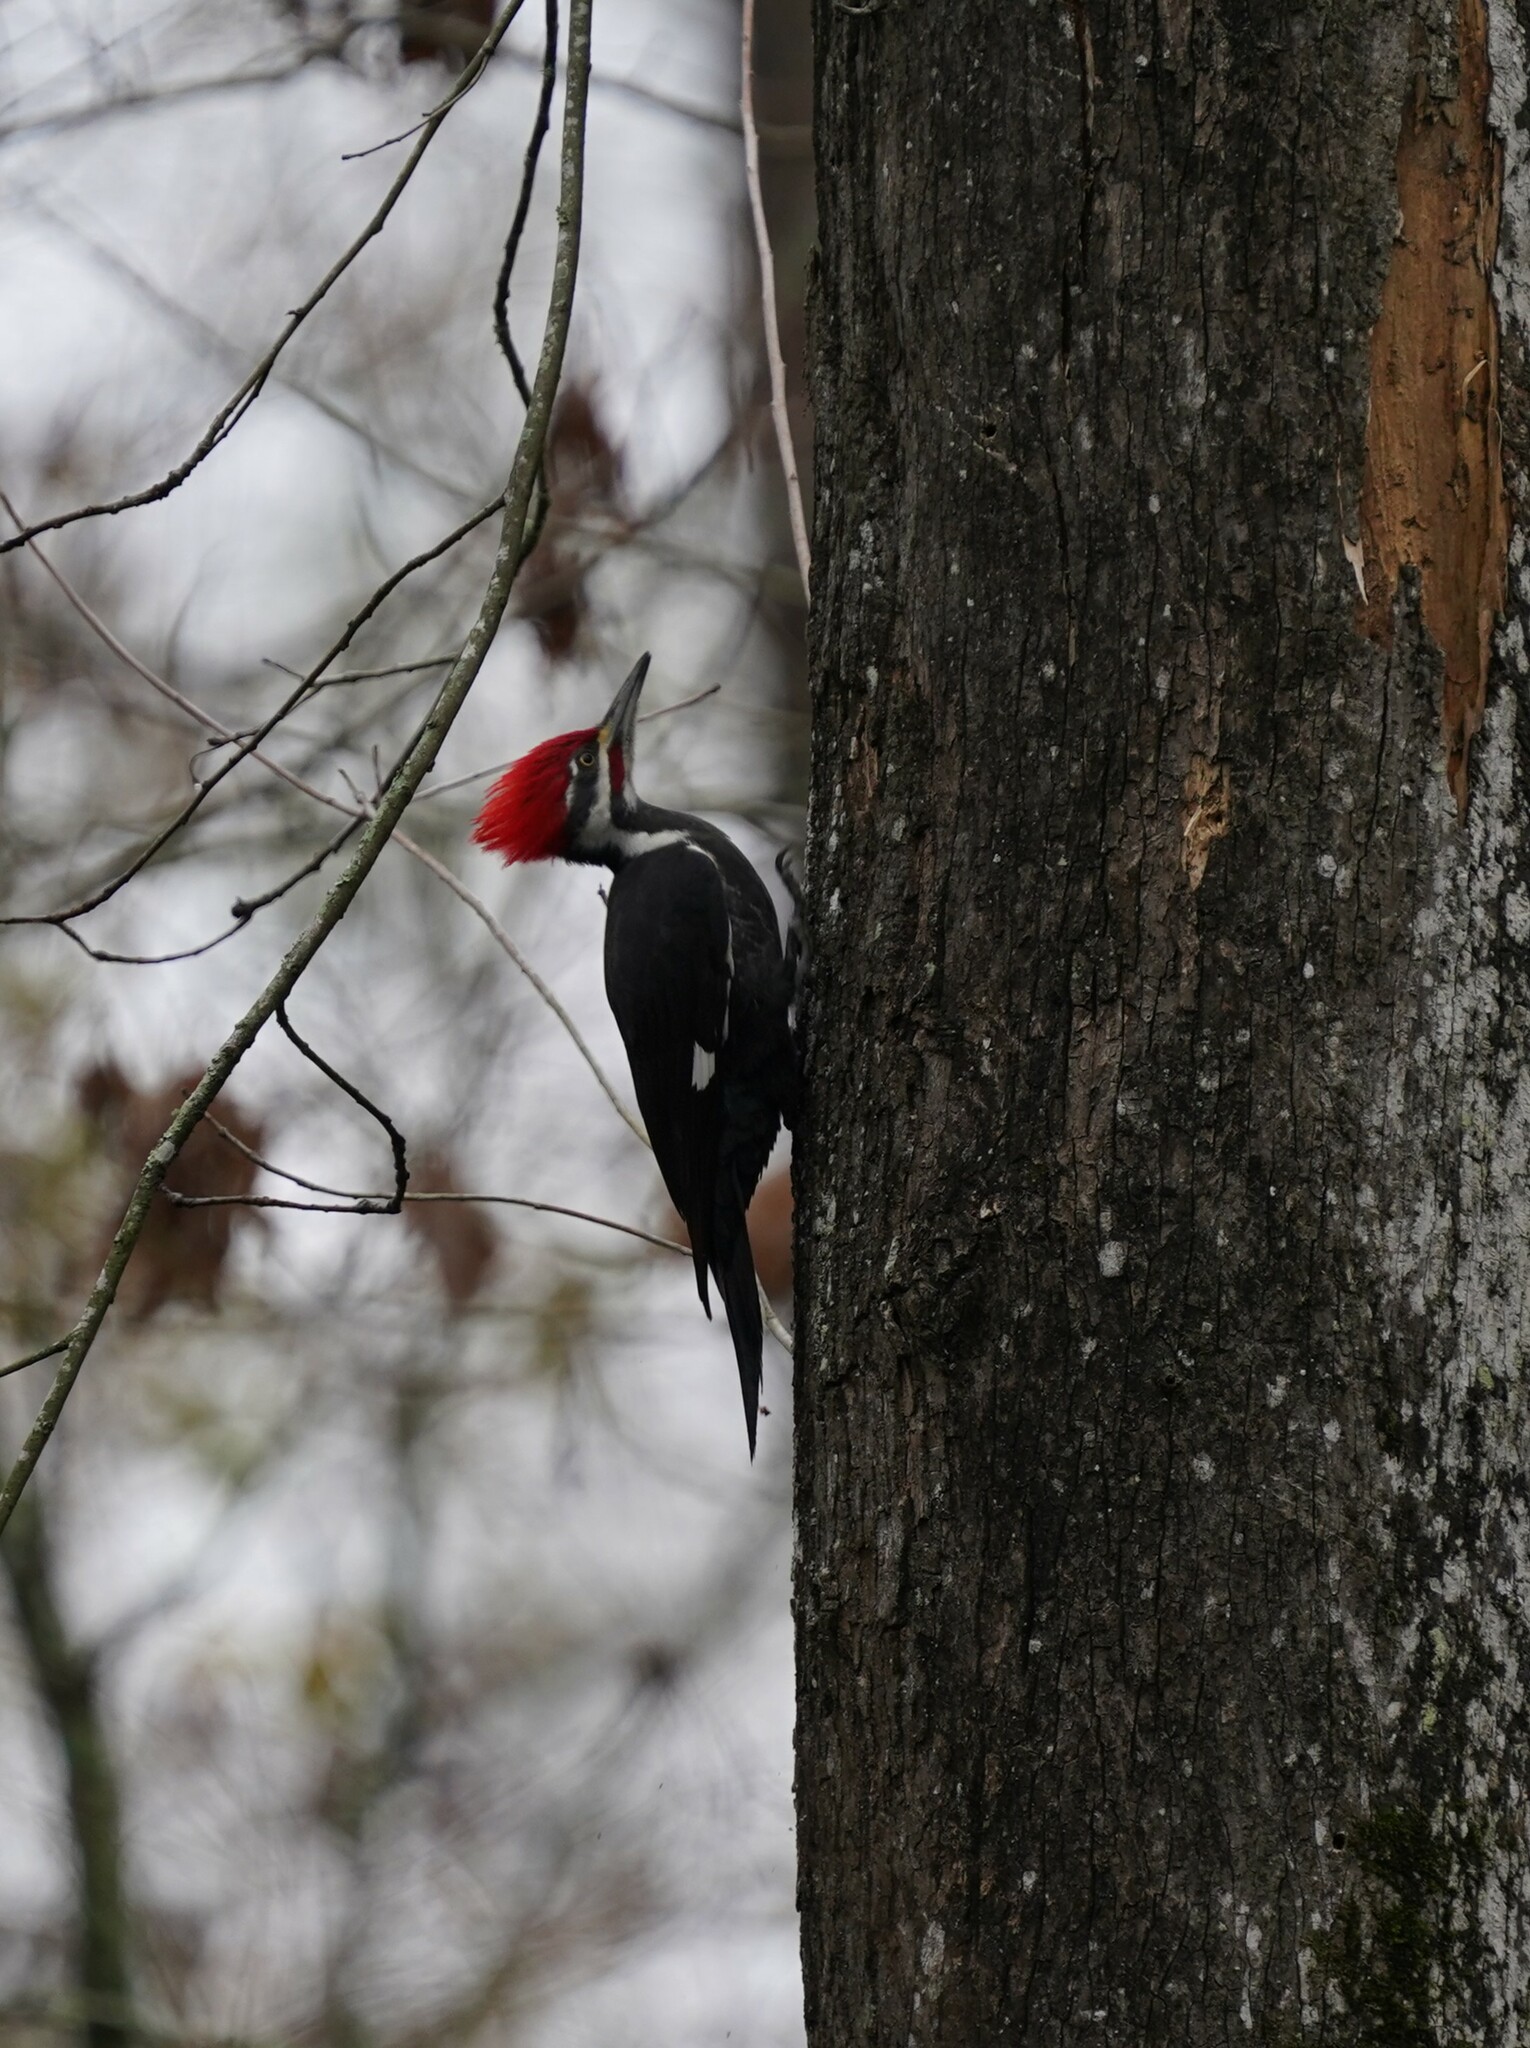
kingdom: Animalia
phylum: Chordata
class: Aves
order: Piciformes
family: Picidae
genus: Dryocopus
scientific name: Dryocopus pileatus
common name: Pileated woodpecker
